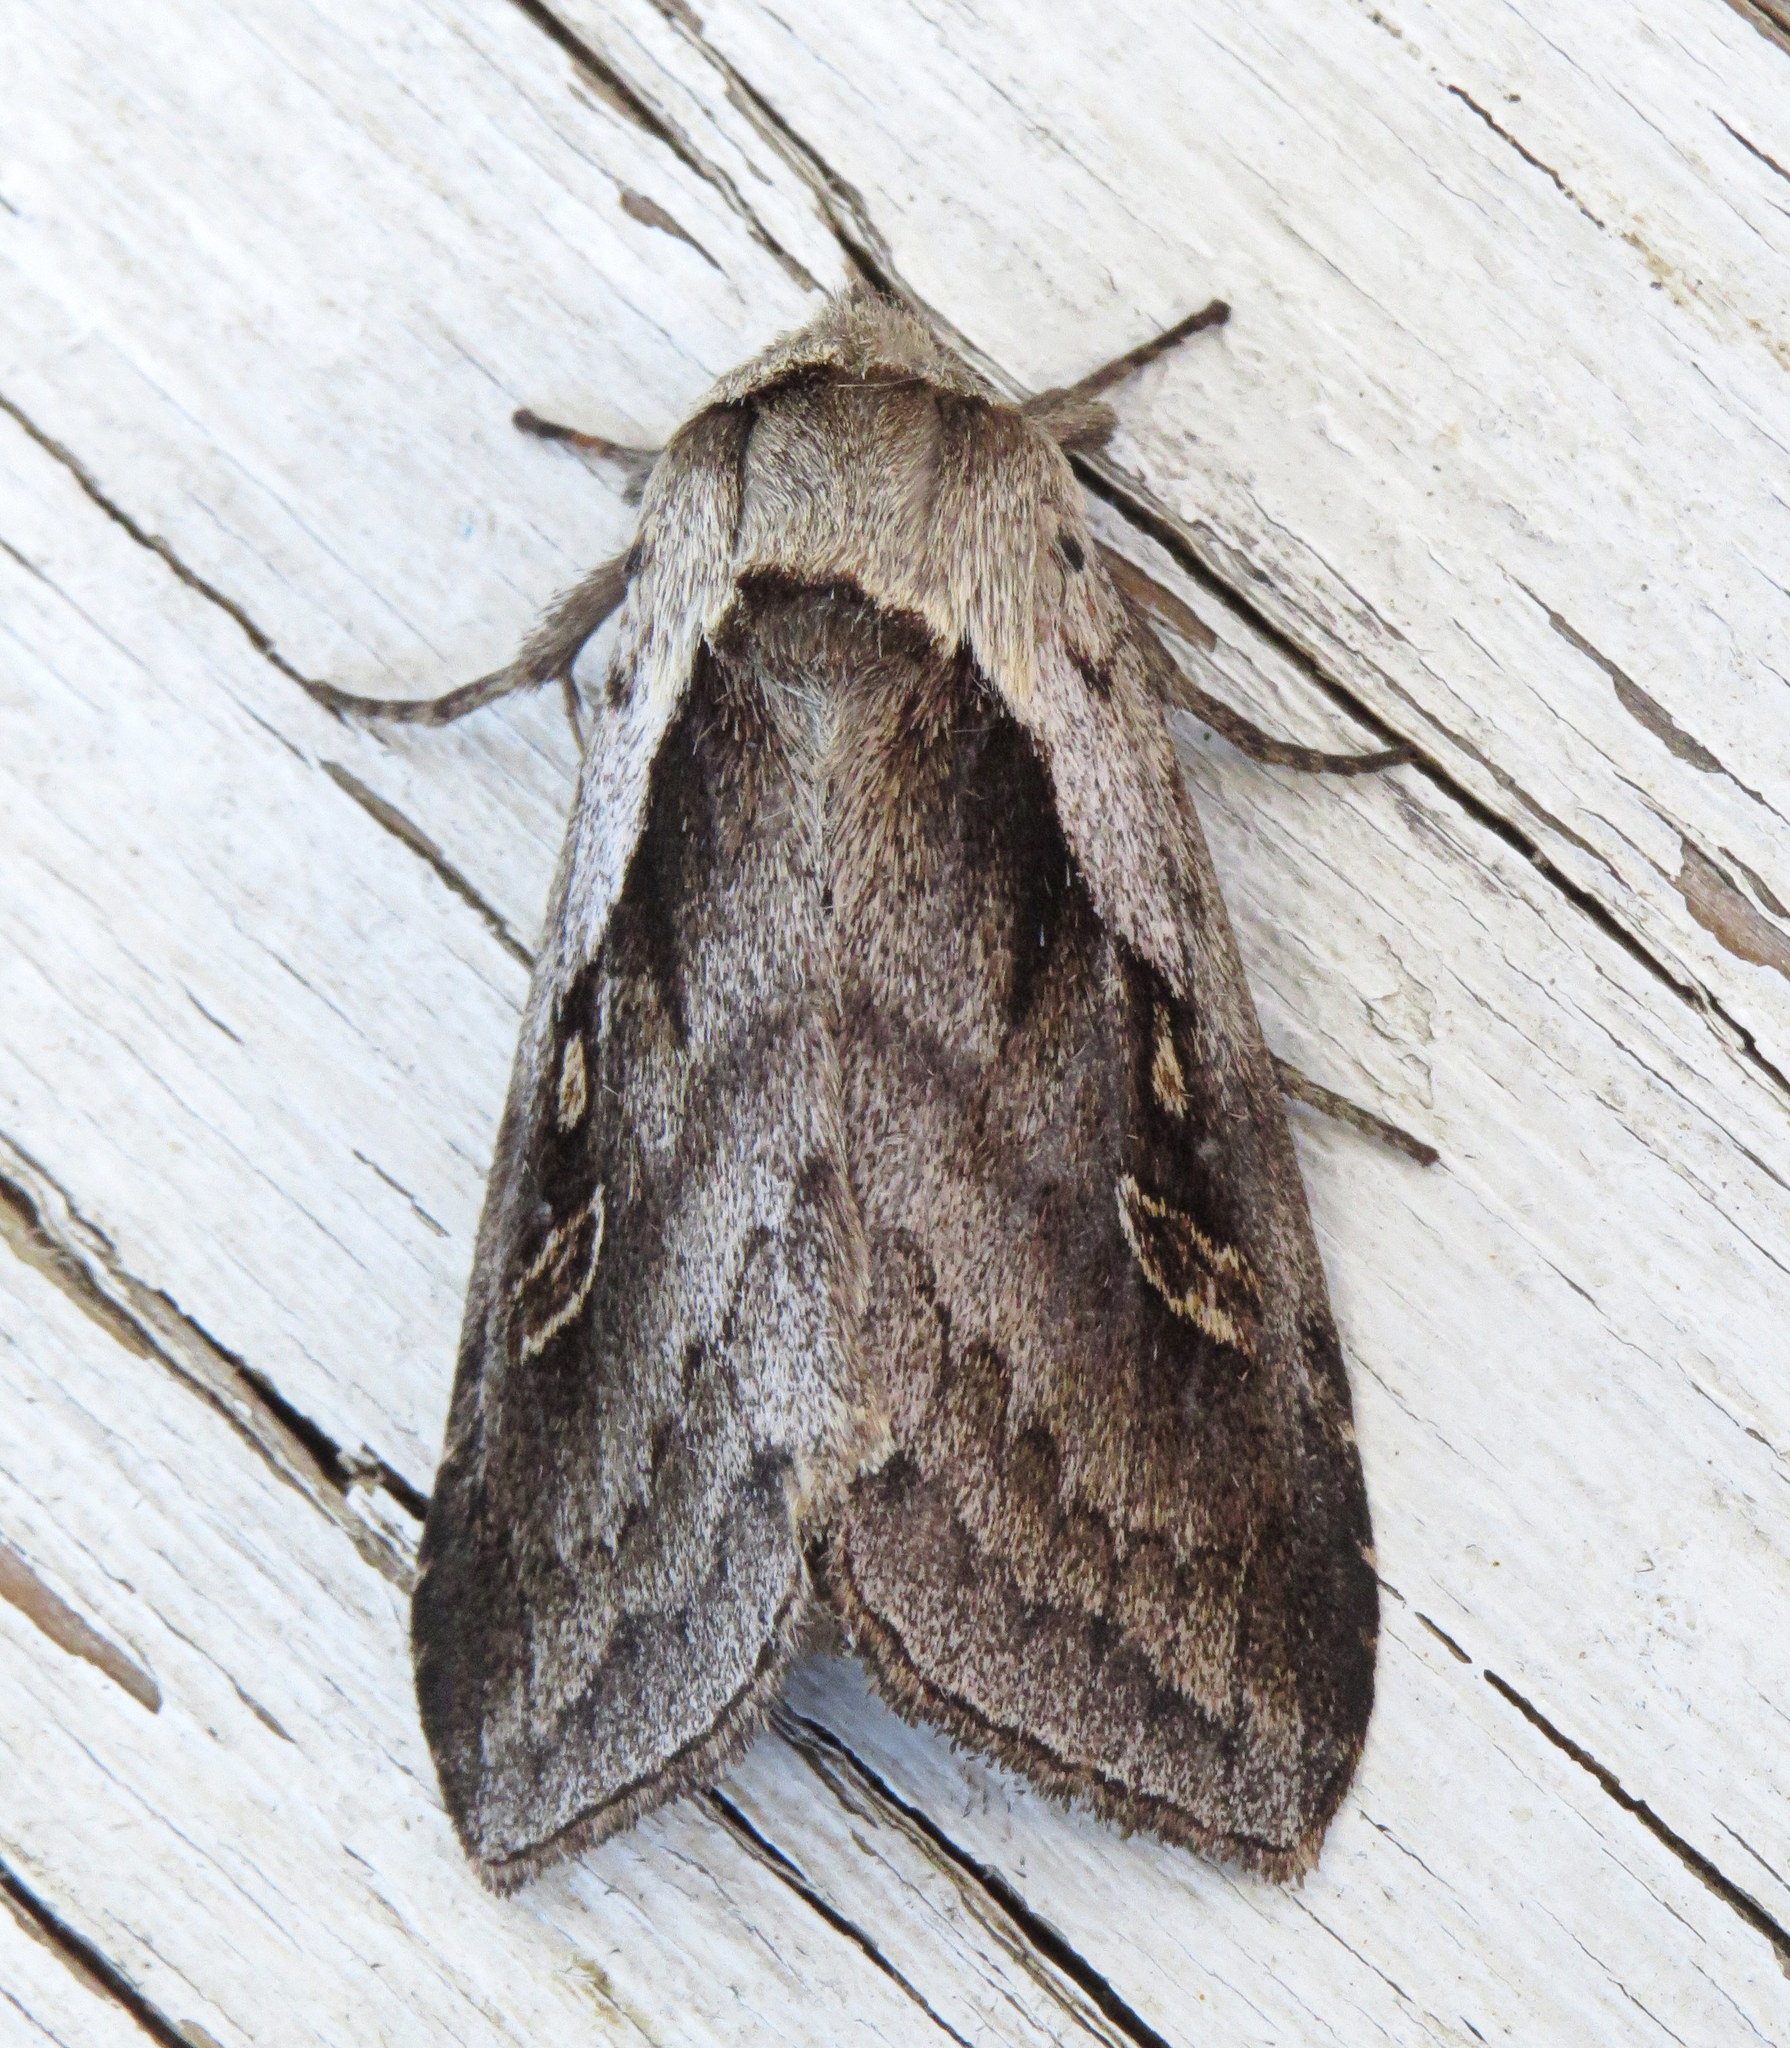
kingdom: Animalia
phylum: Arthropoda
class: Insecta
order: Lepidoptera
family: Noctuidae
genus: Bellura
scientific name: Bellura brehmei
